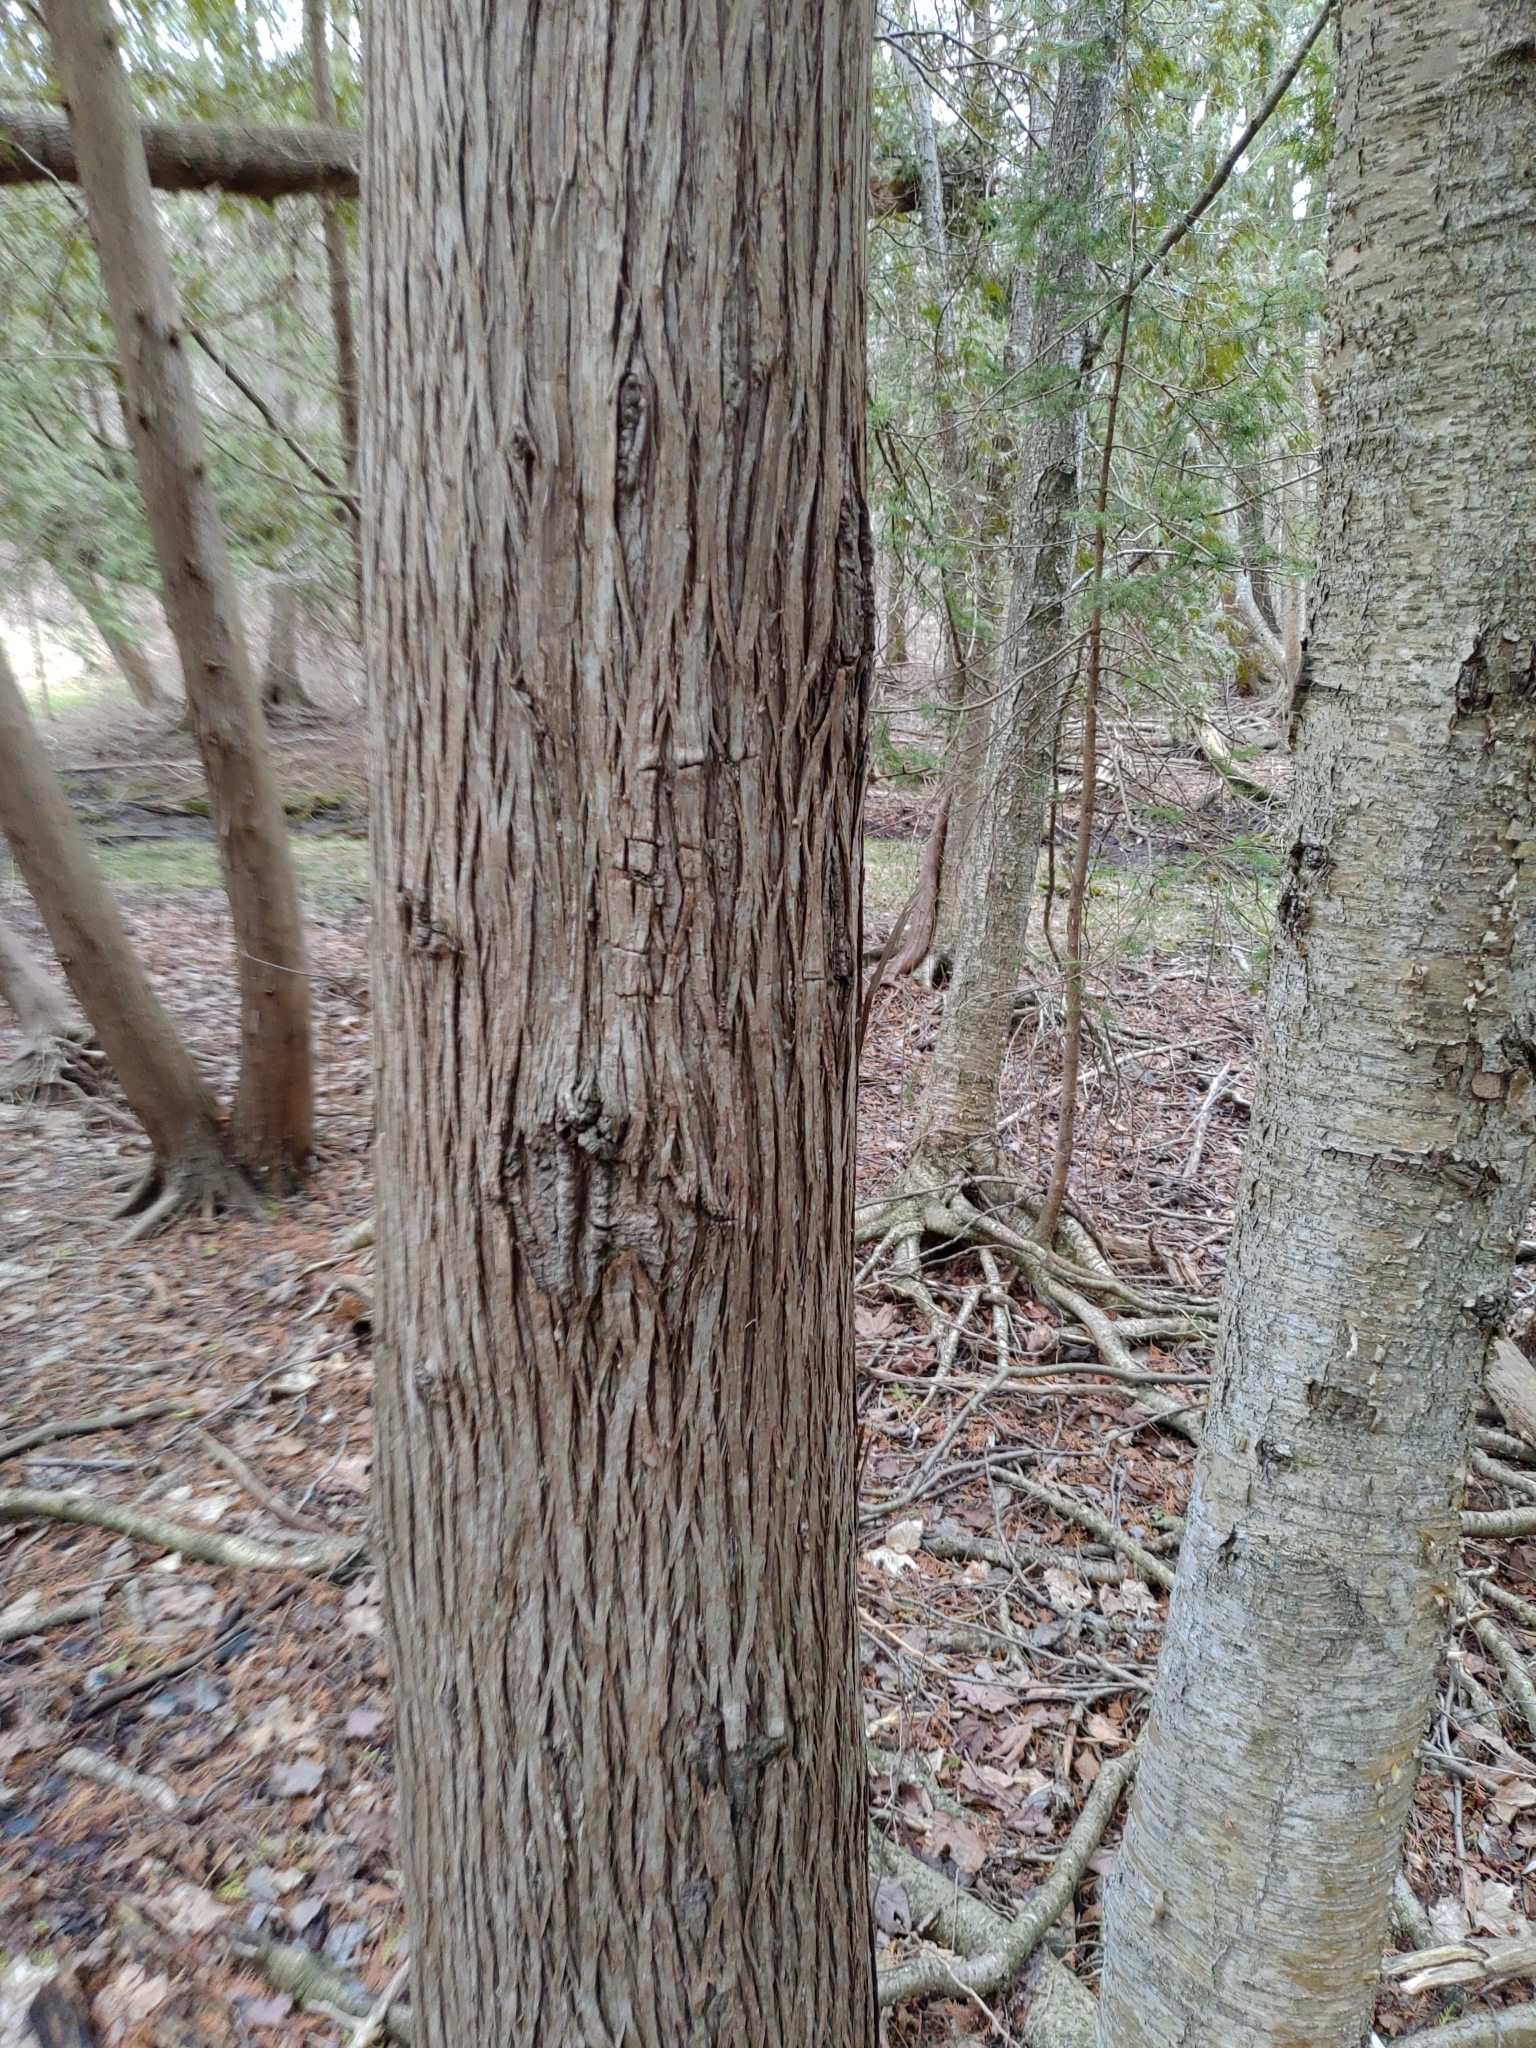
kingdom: Plantae
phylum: Tracheophyta
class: Pinopsida
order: Pinales
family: Cupressaceae
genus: Thuja
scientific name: Thuja occidentalis
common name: Northern white-cedar
